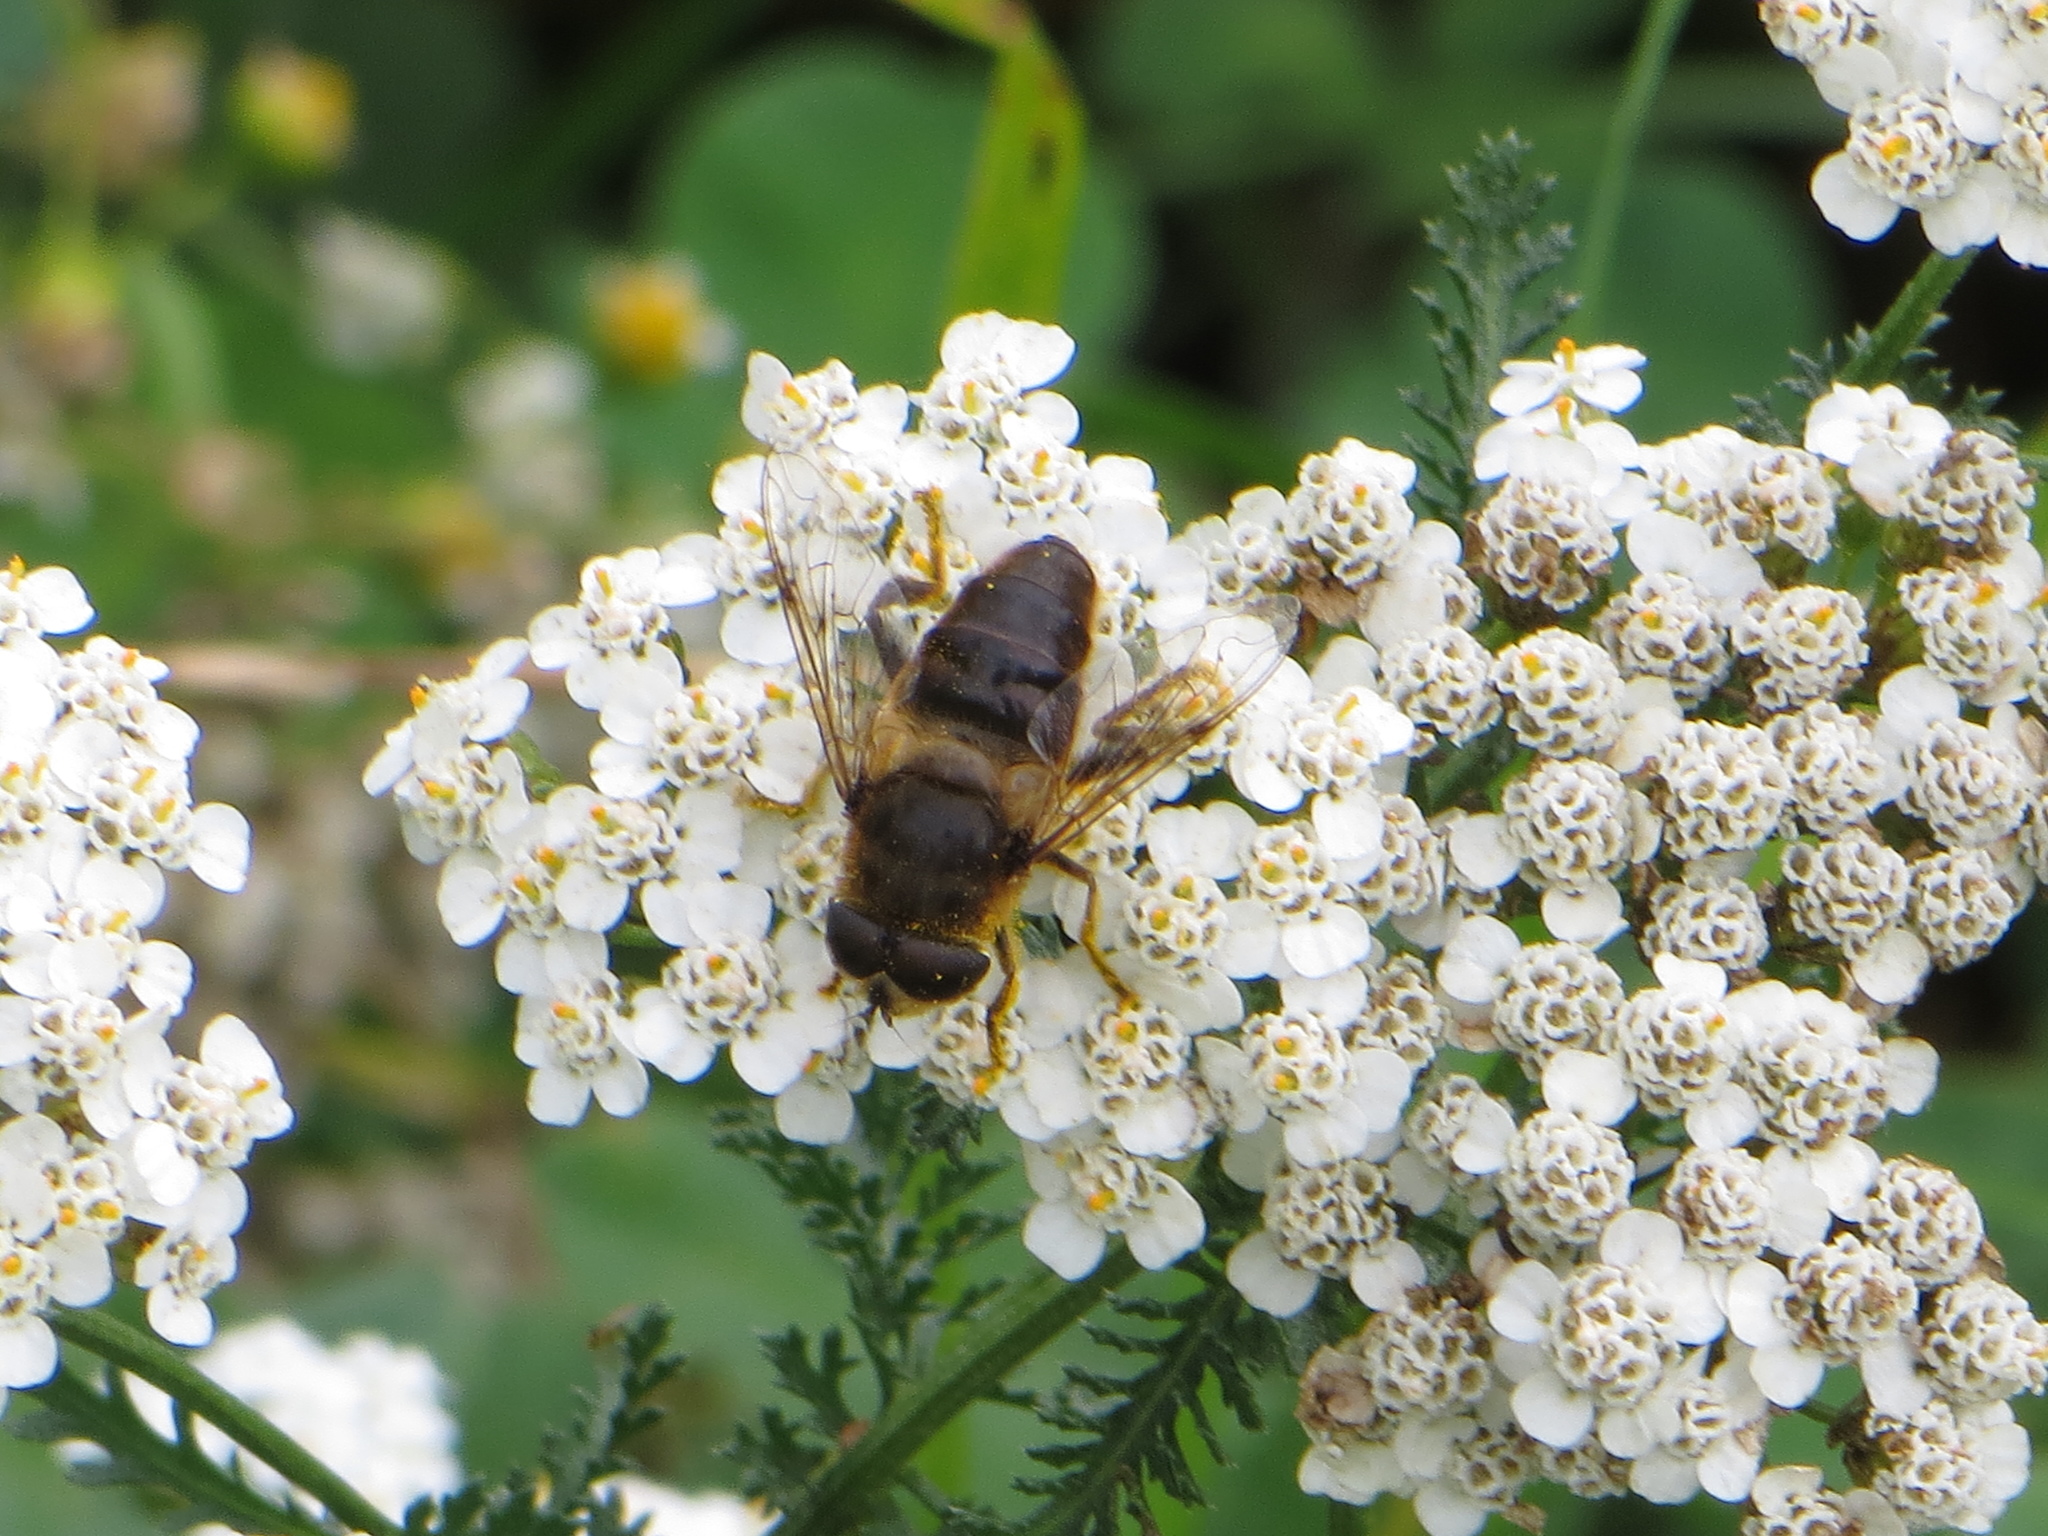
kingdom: Animalia
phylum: Arthropoda
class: Insecta
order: Diptera
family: Syrphidae
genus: Eristalis
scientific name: Eristalis tenax
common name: Drone fly
